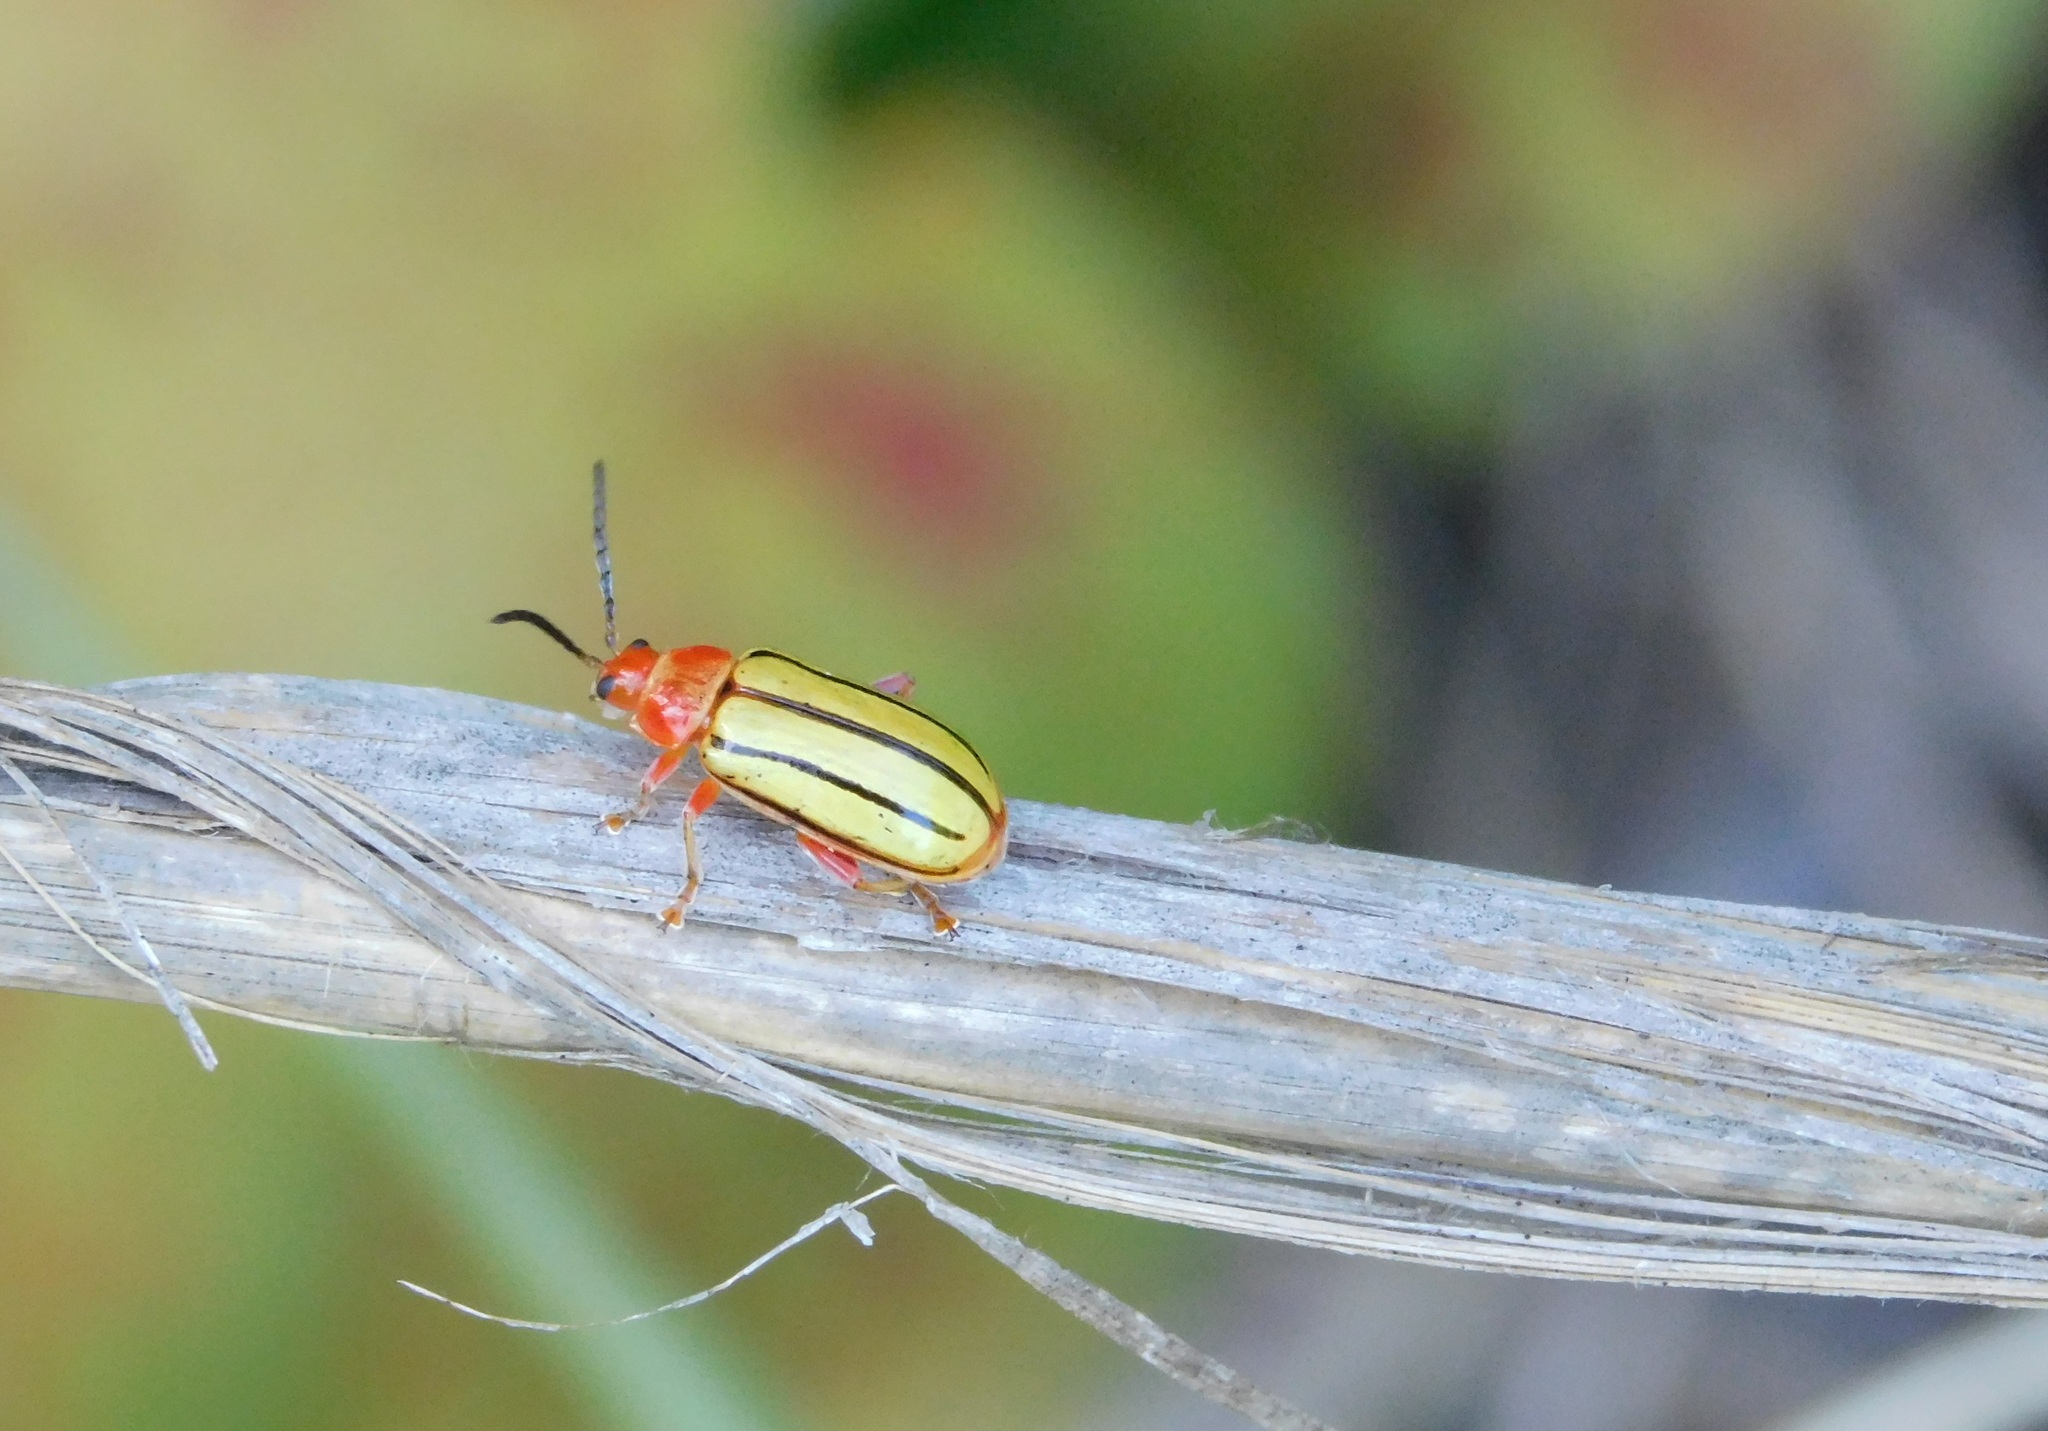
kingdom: Animalia
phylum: Arthropoda
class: Insecta
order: Coleoptera
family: Chrysomelidae
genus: Disonycha
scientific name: Disonycha
